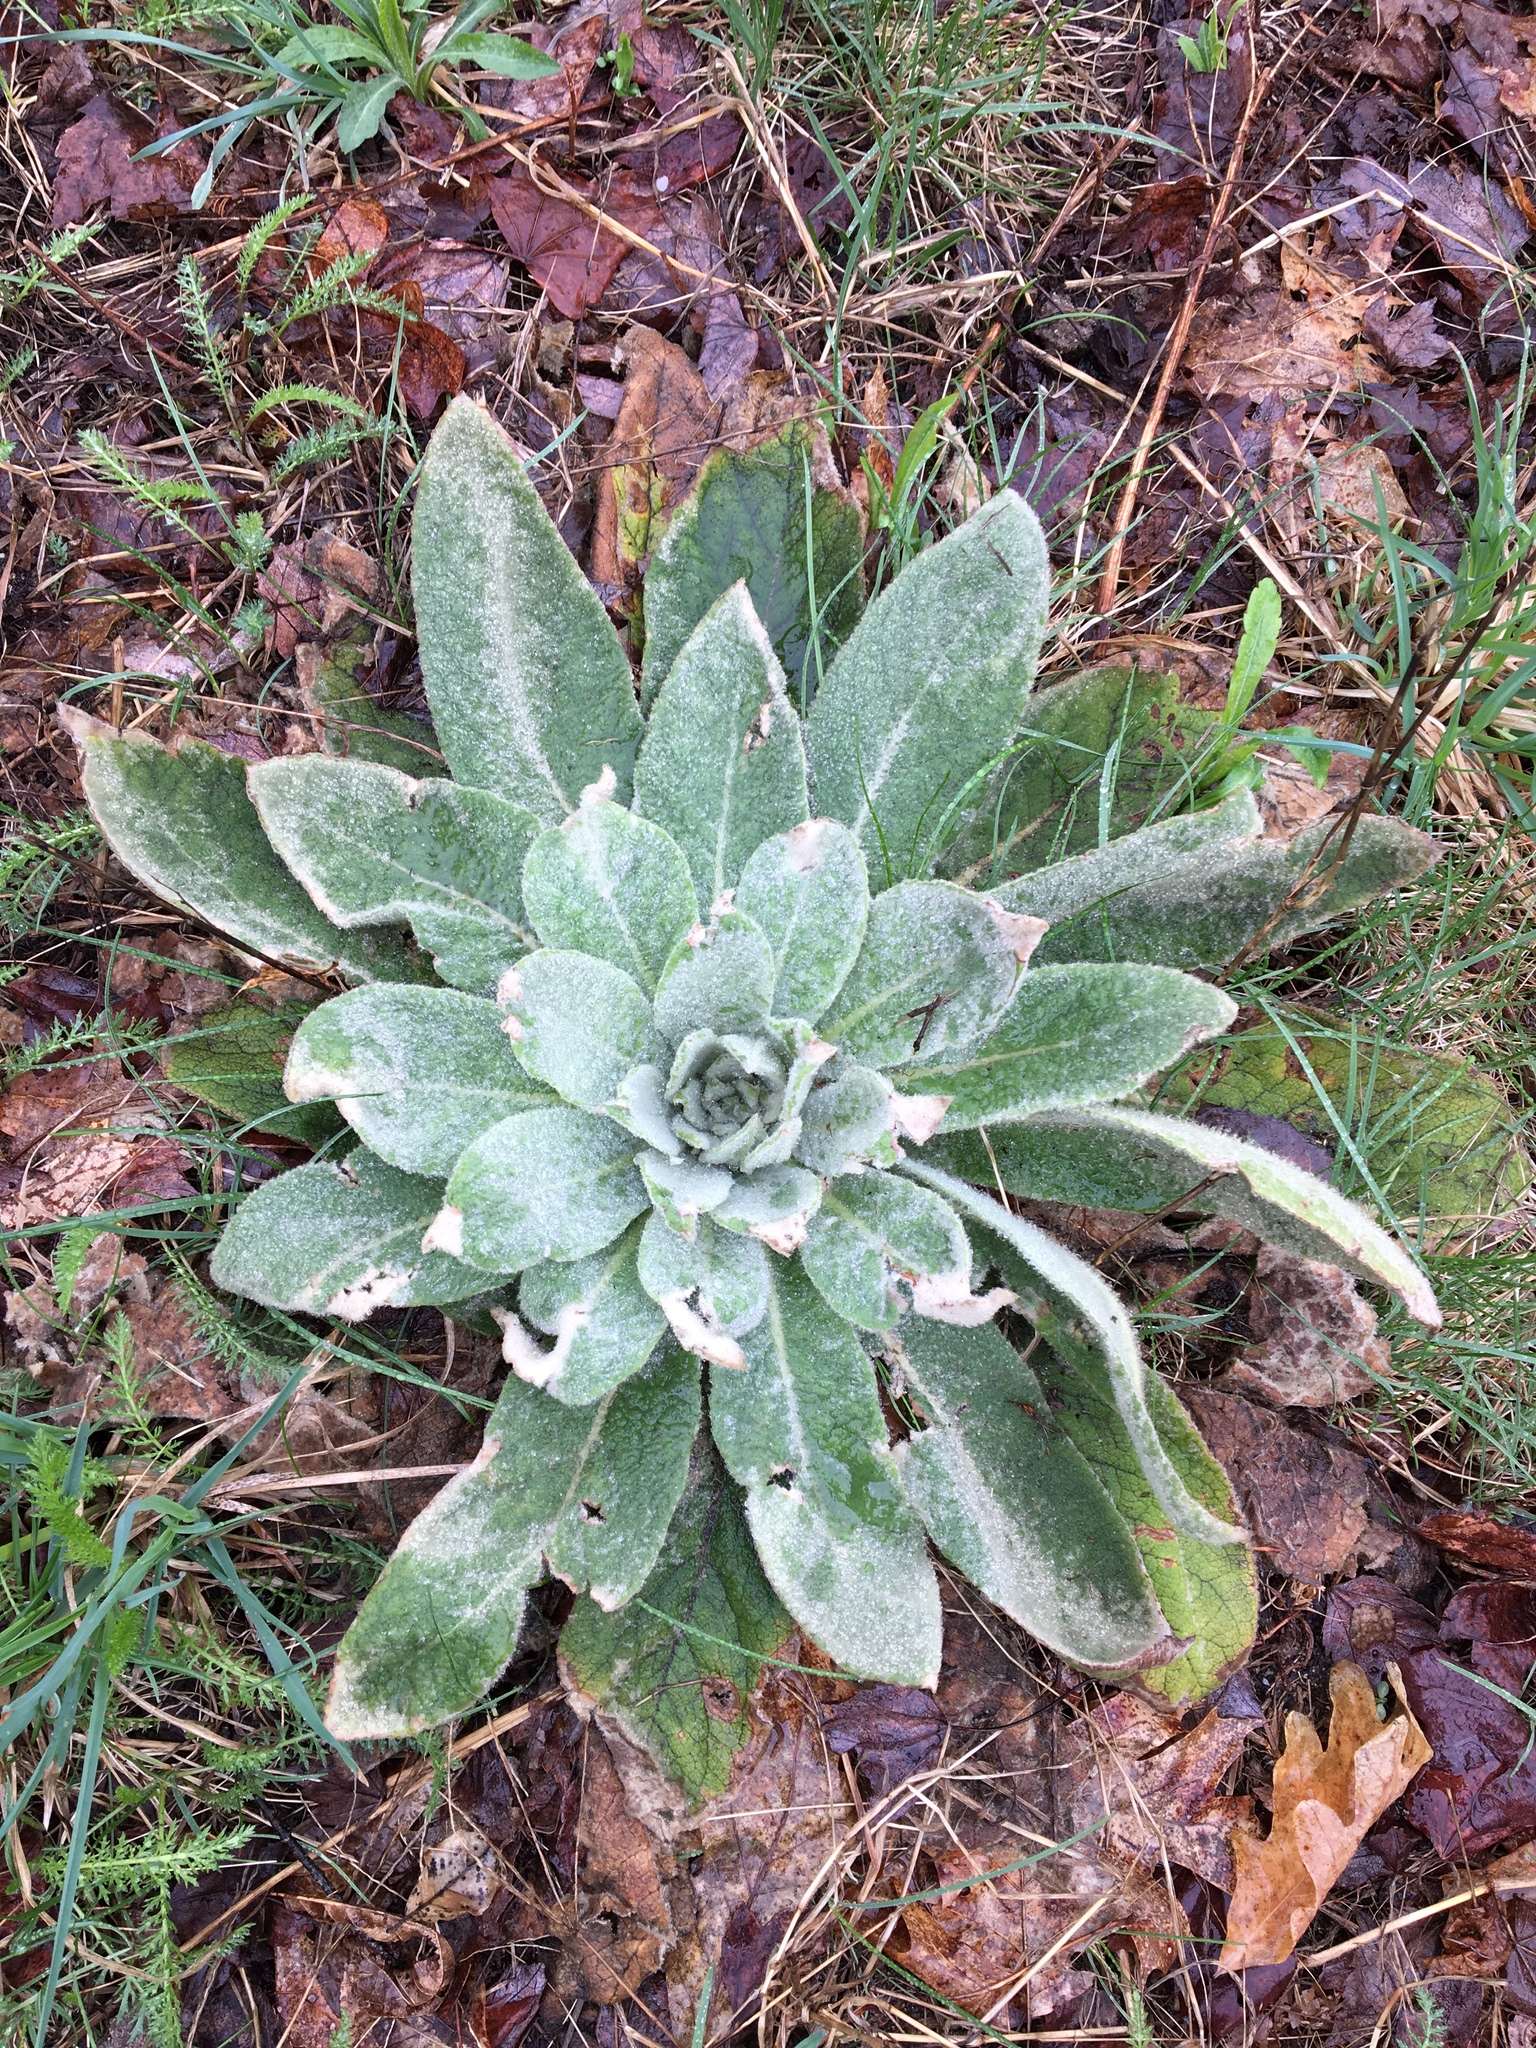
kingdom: Plantae
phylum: Tracheophyta
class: Magnoliopsida
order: Lamiales
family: Scrophulariaceae
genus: Verbascum
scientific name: Verbascum thapsus
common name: Common mullein
